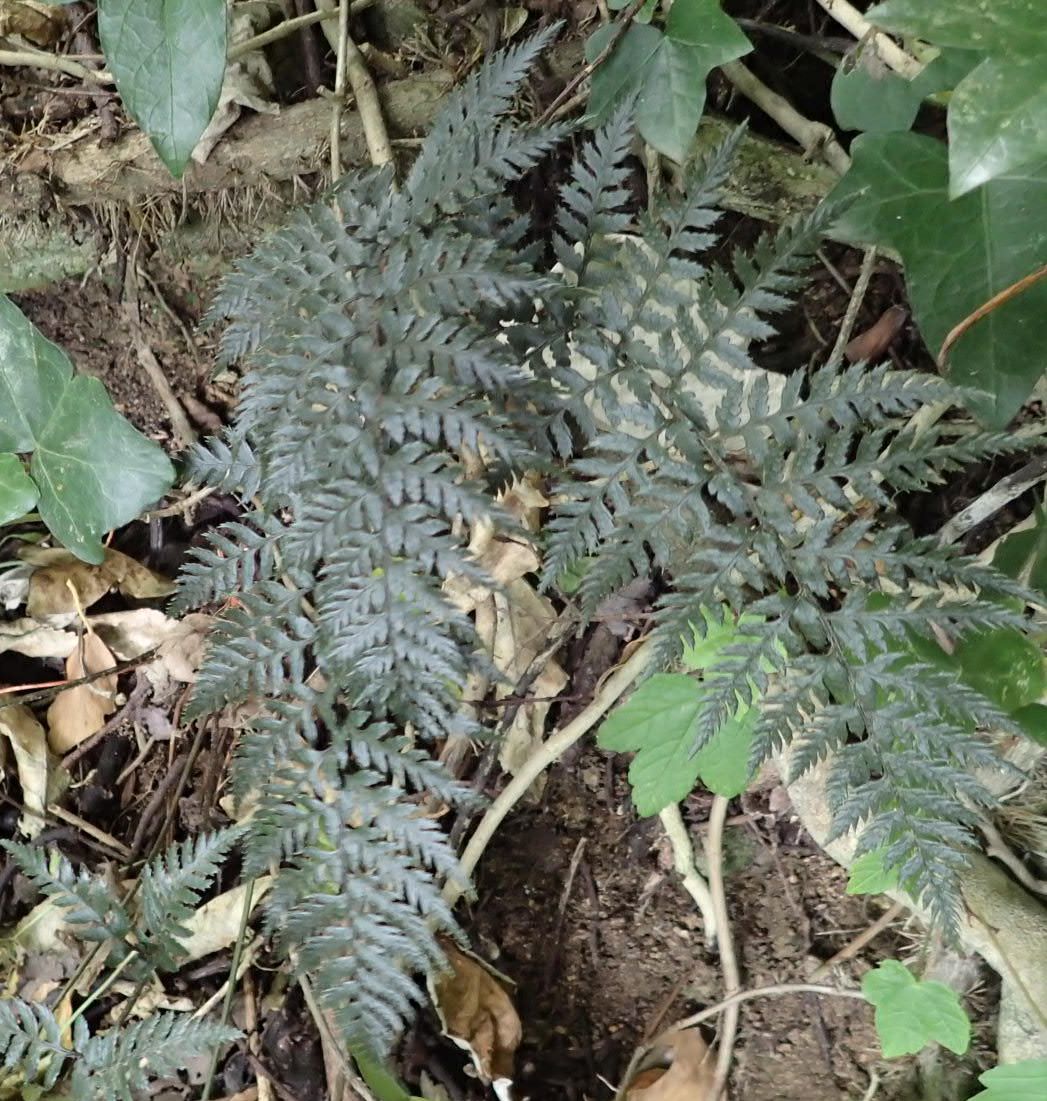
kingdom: Plantae
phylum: Tracheophyta
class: Polypodiopsida
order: Polypodiales
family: Dryopteridaceae
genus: Polystichum
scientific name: Polystichum neozelandicum
